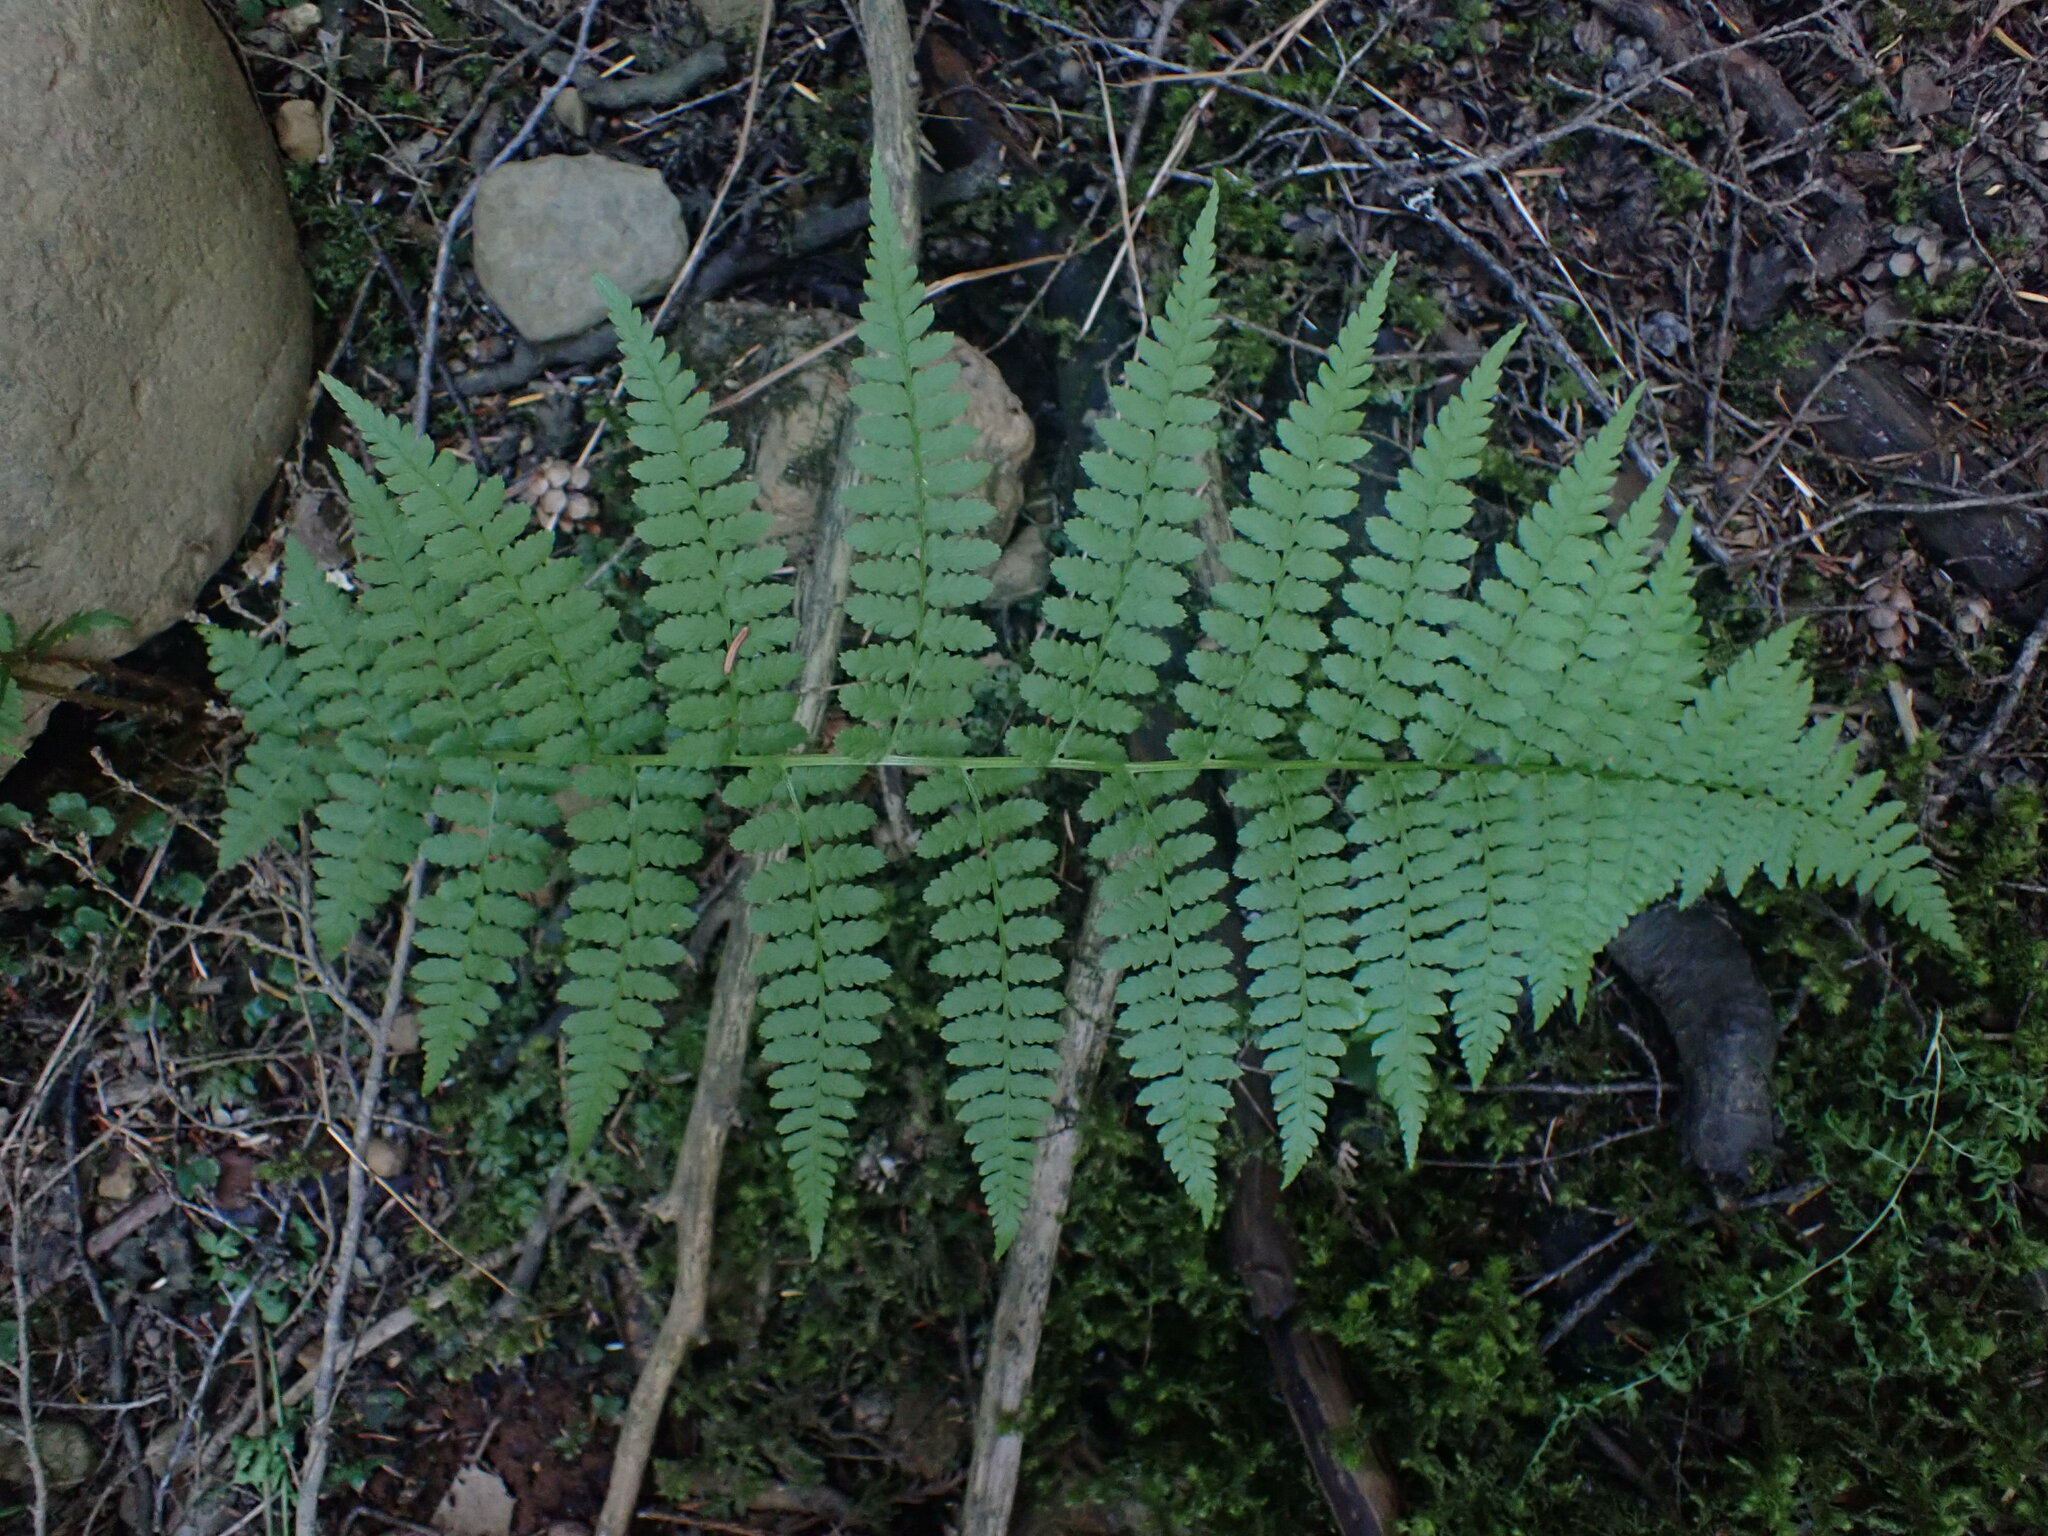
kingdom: Plantae
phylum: Tracheophyta
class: Polypodiopsida
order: Polypodiales
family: Athyriaceae
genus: Athyrium
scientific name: Athyrium filix-femina
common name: Lady fern
